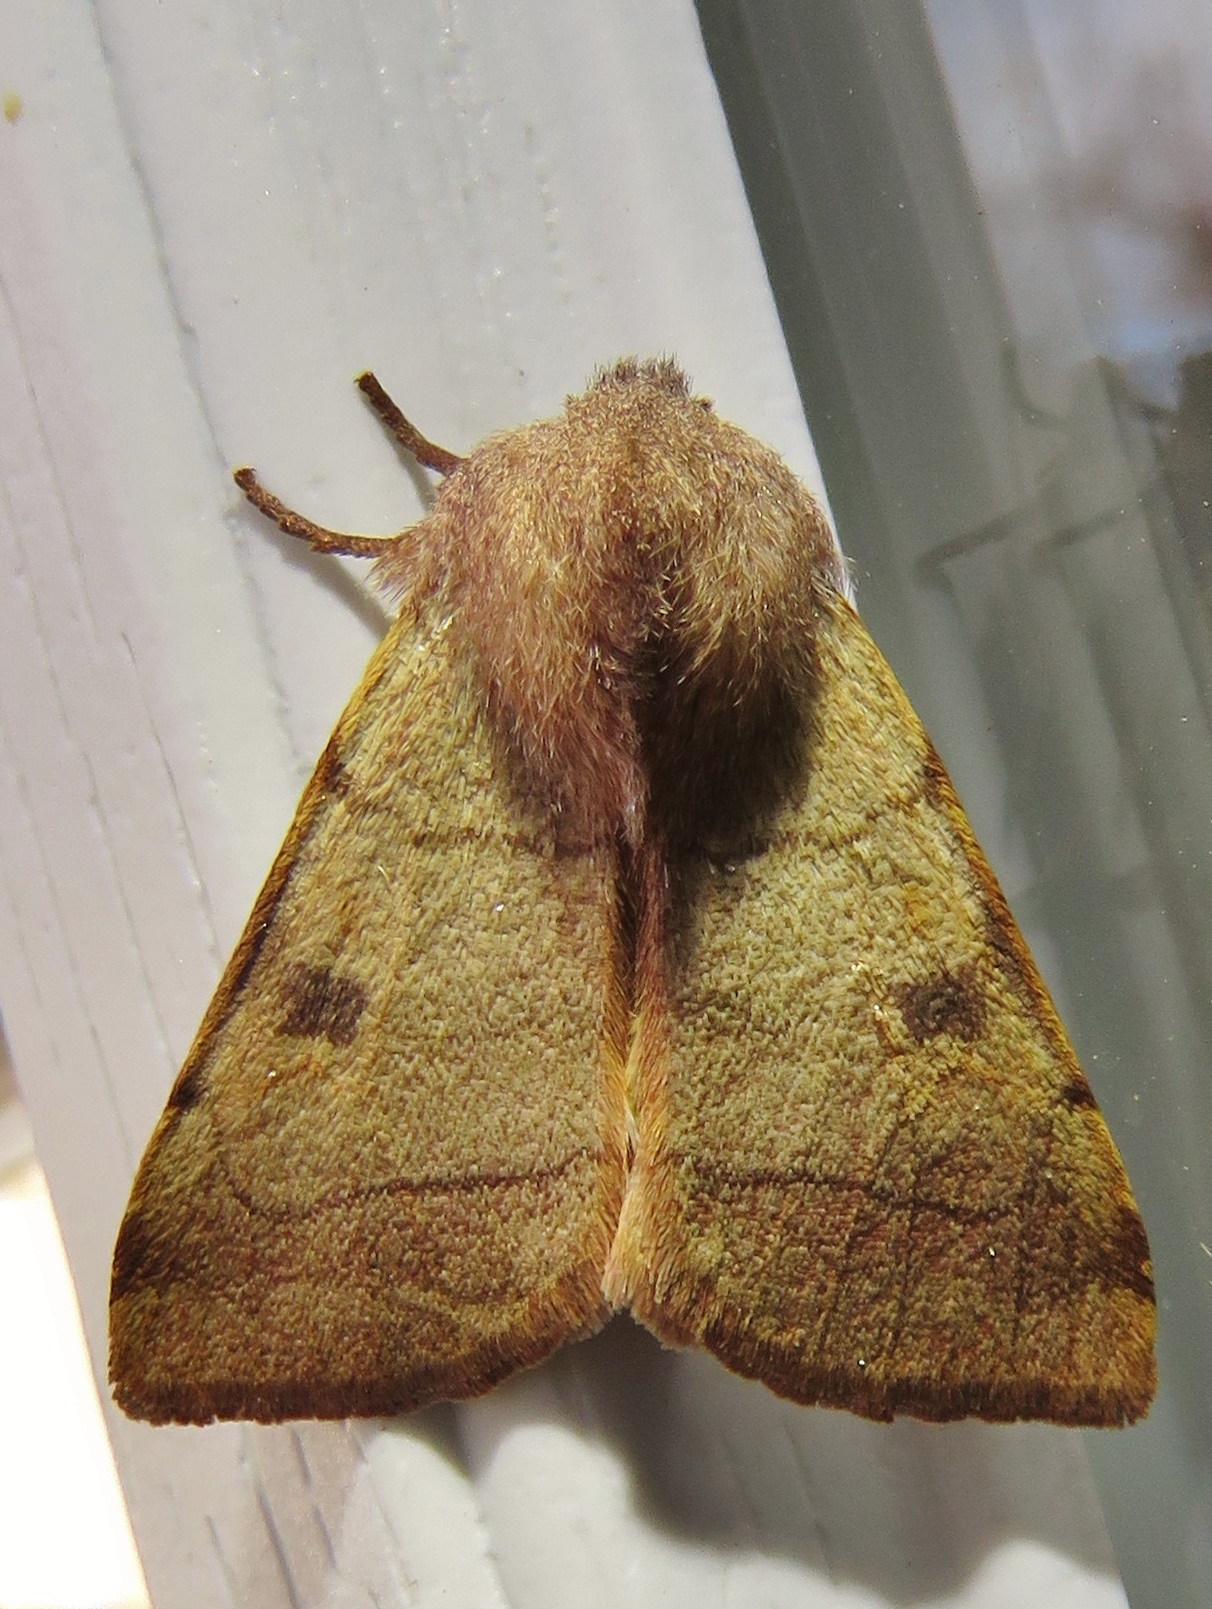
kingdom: Animalia
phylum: Arthropoda
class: Insecta
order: Lepidoptera
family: Noctuidae
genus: Choephora
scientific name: Choephora fungorum
